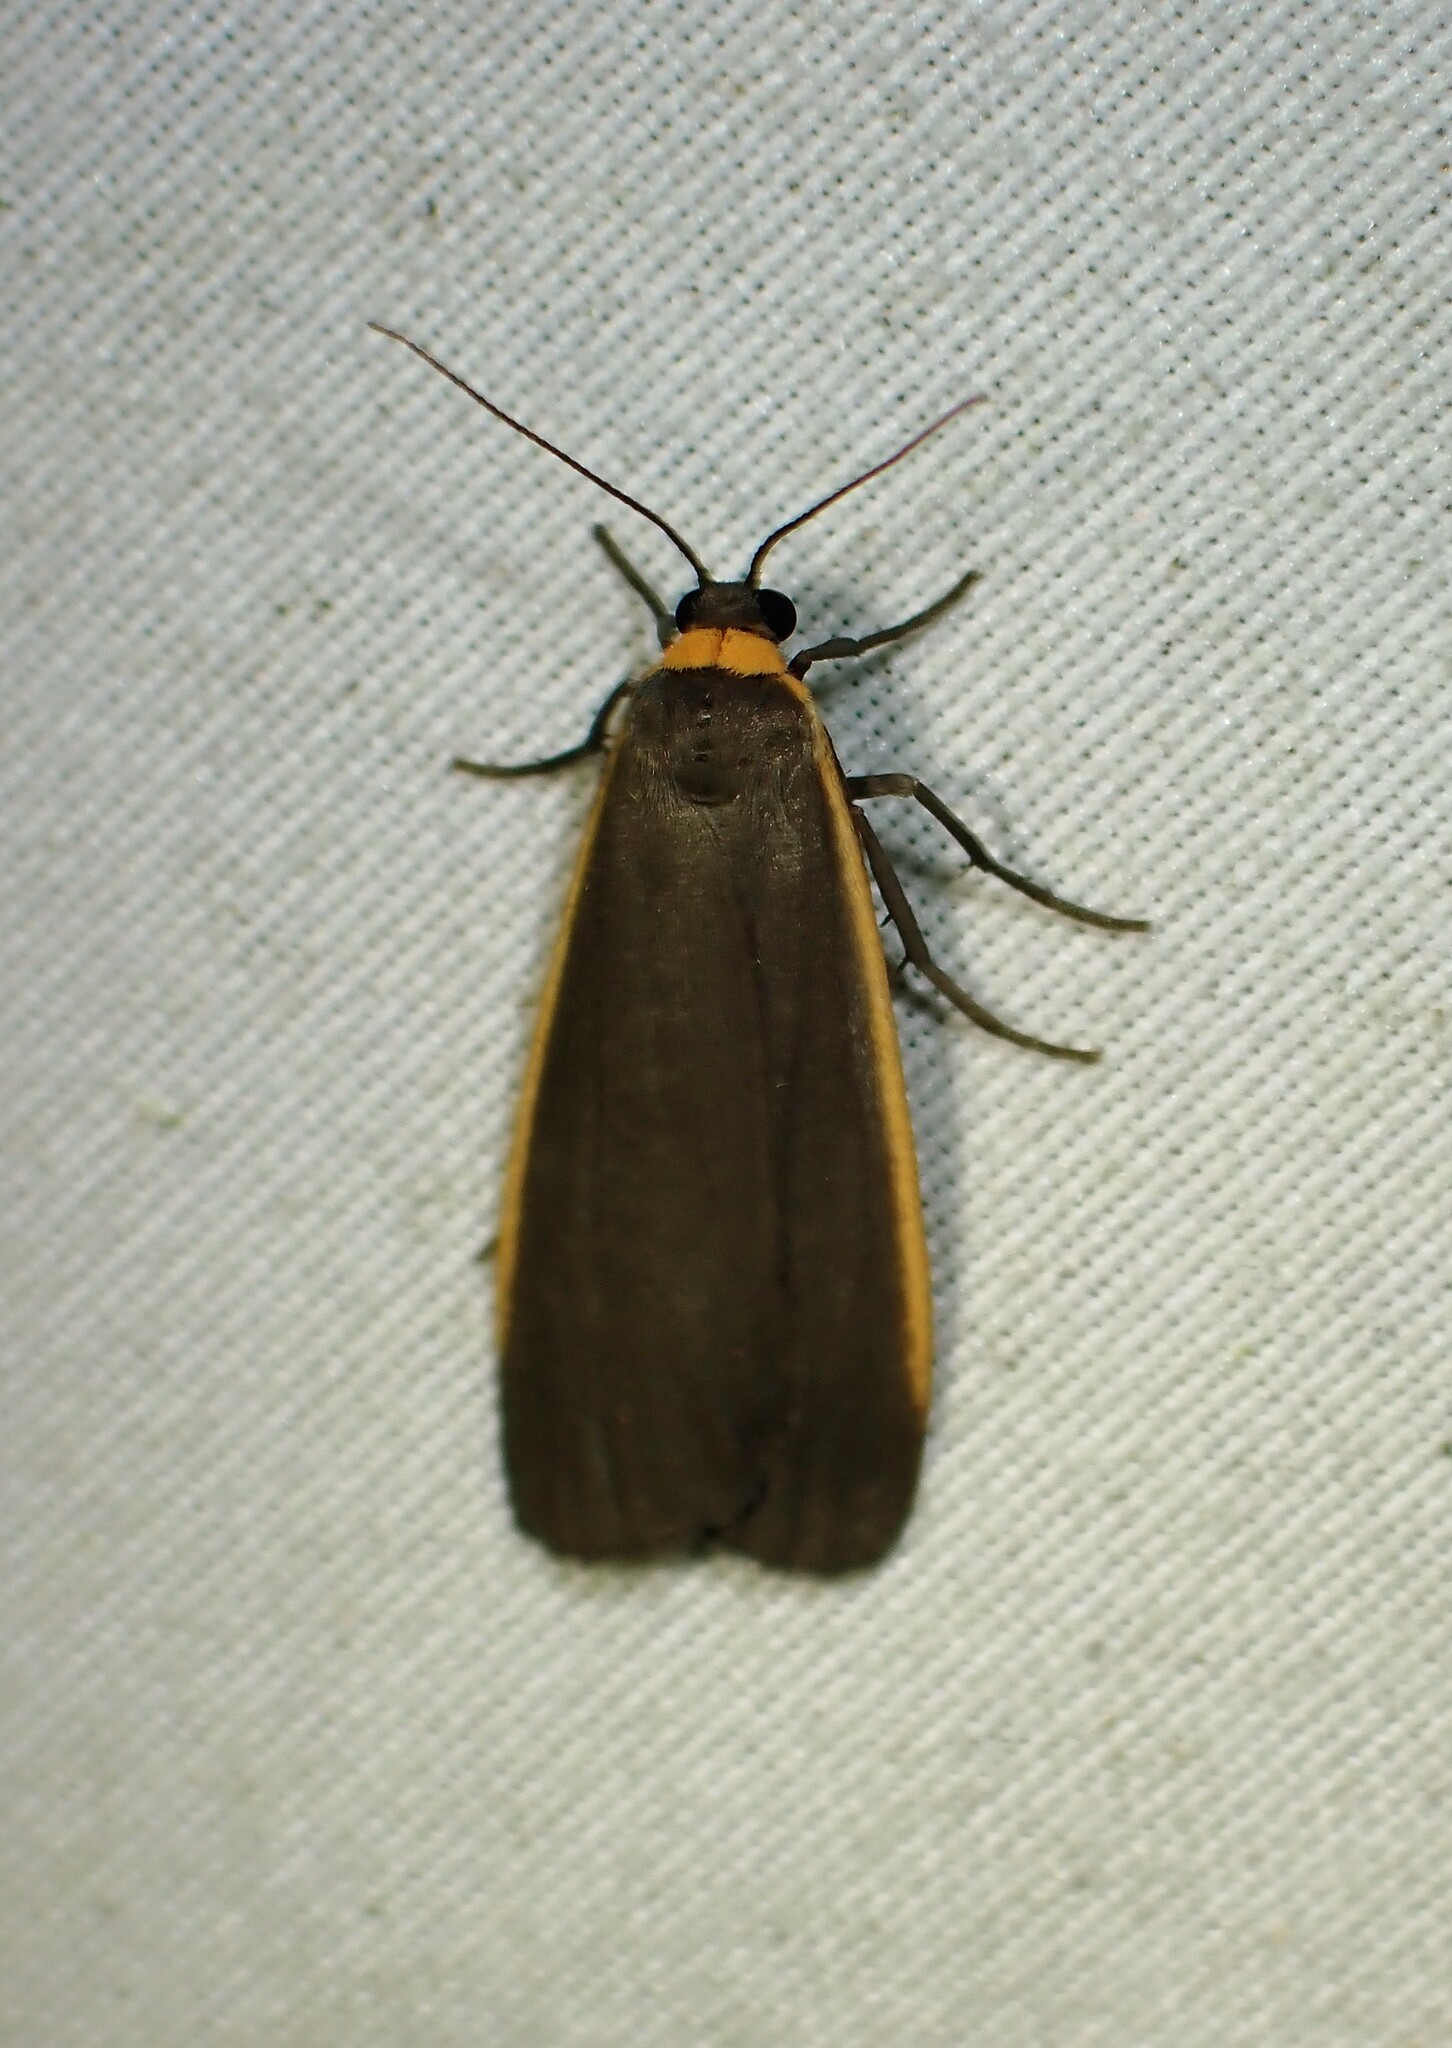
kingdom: Animalia
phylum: Arthropoda
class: Insecta
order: Lepidoptera
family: Erebidae
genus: Manulea
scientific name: Manulea bicolor
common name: Bicolored moth
